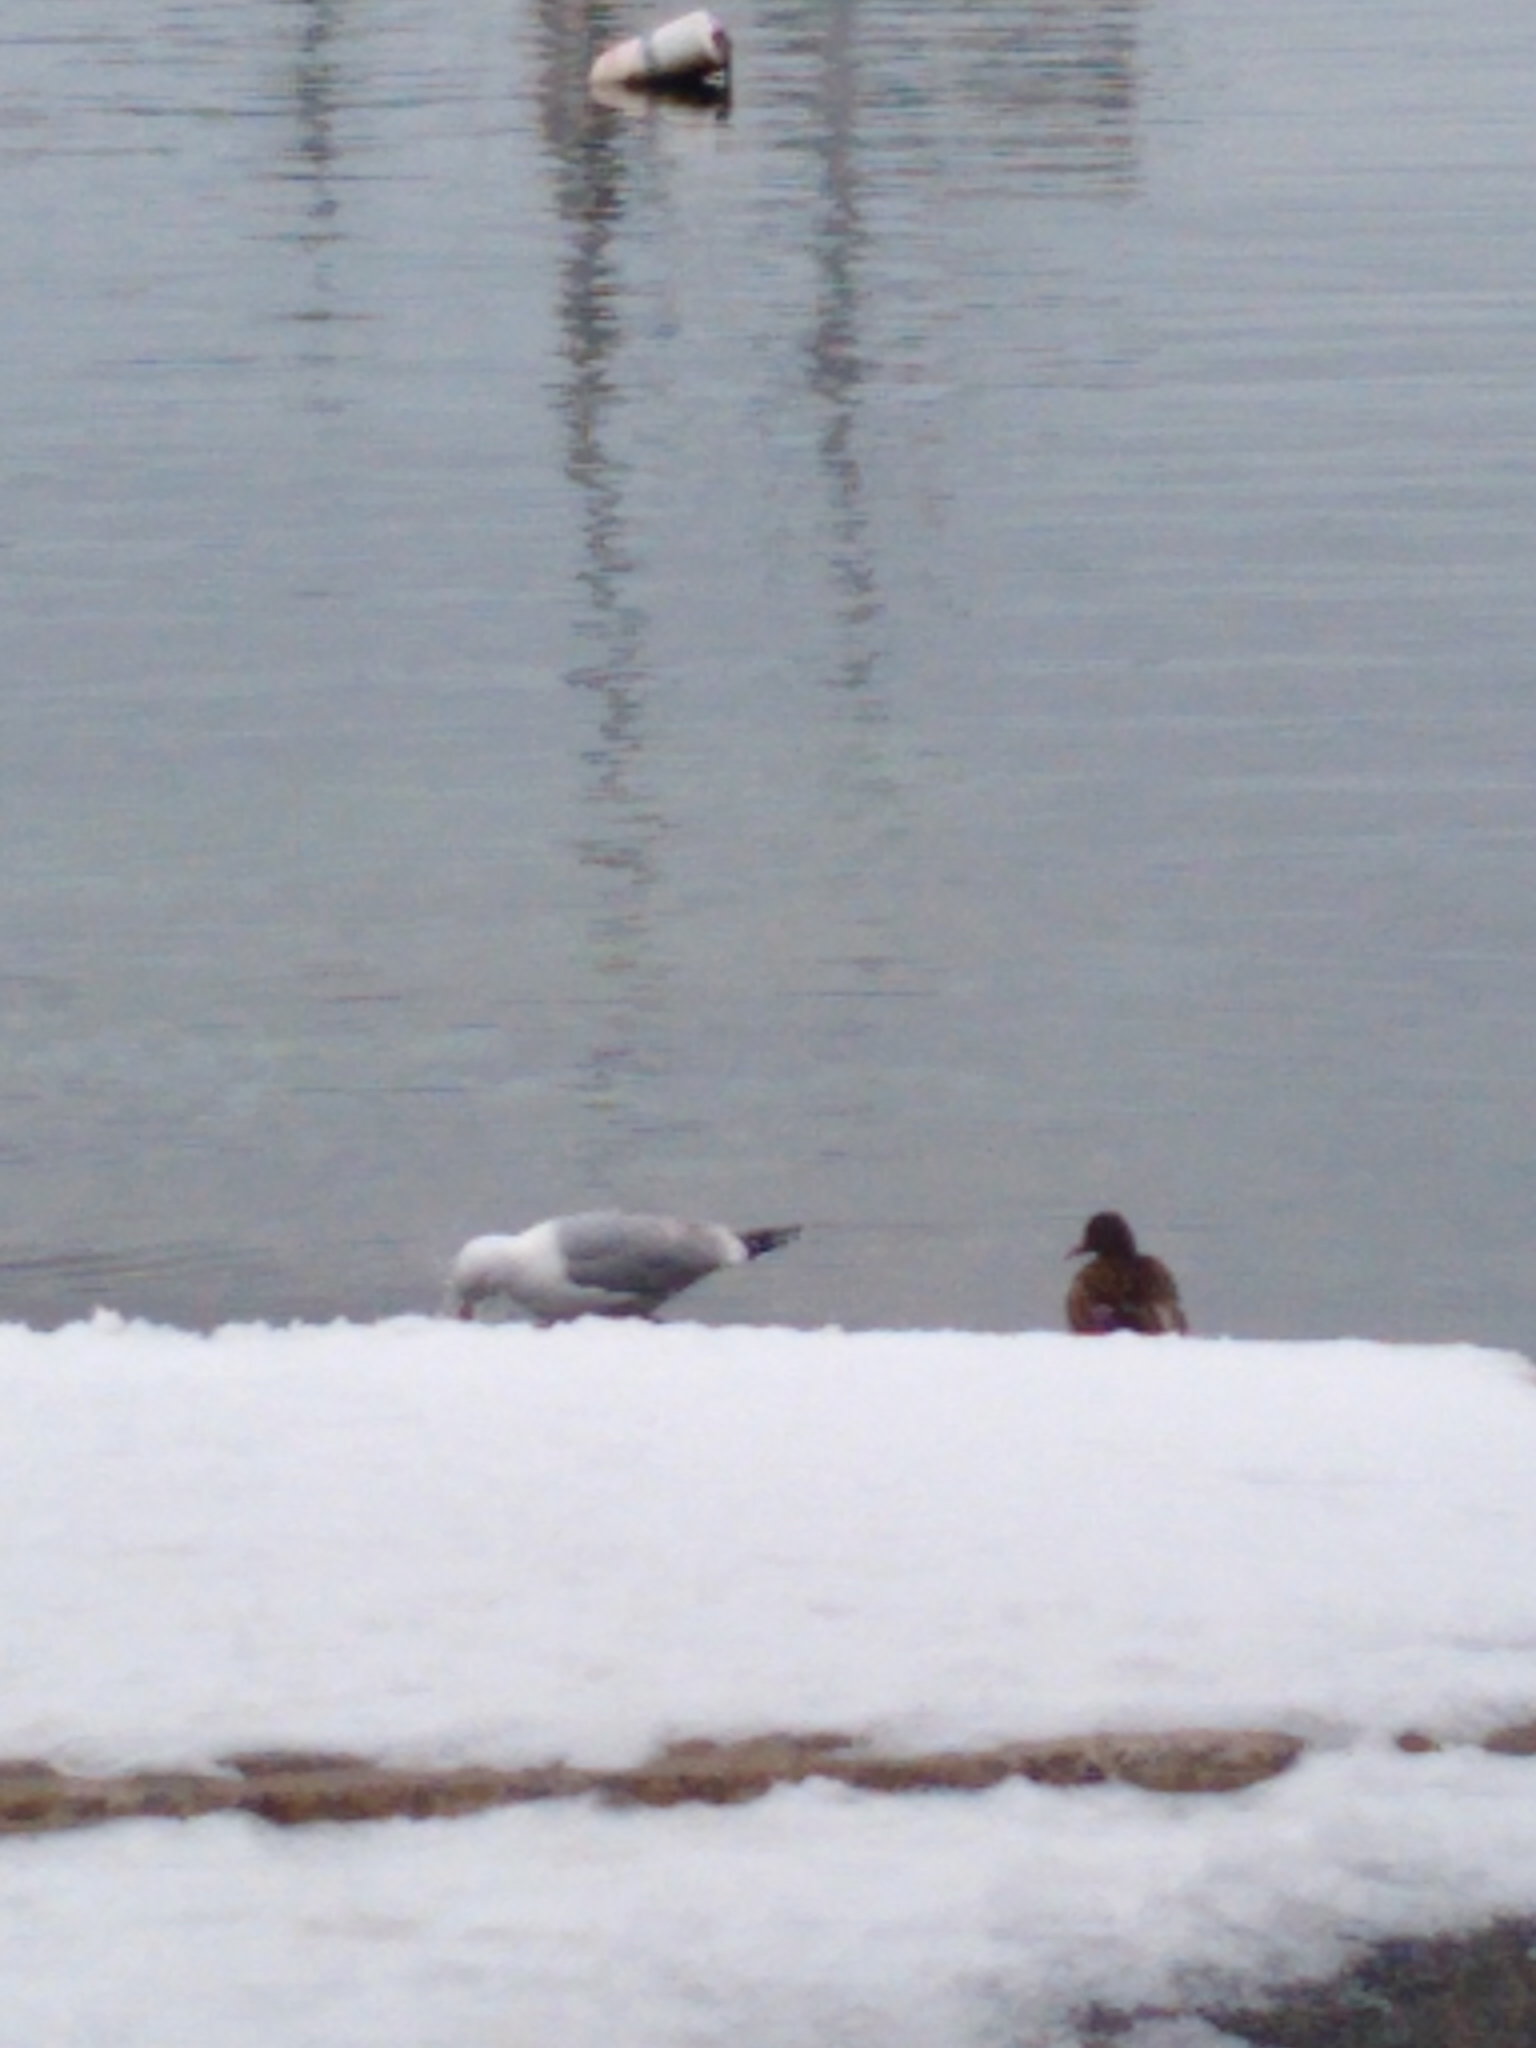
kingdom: Animalia
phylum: Chordata
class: Aves
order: Charadriiformes
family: Laridae
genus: Larus
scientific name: Larus argentatus
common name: Herring gull
